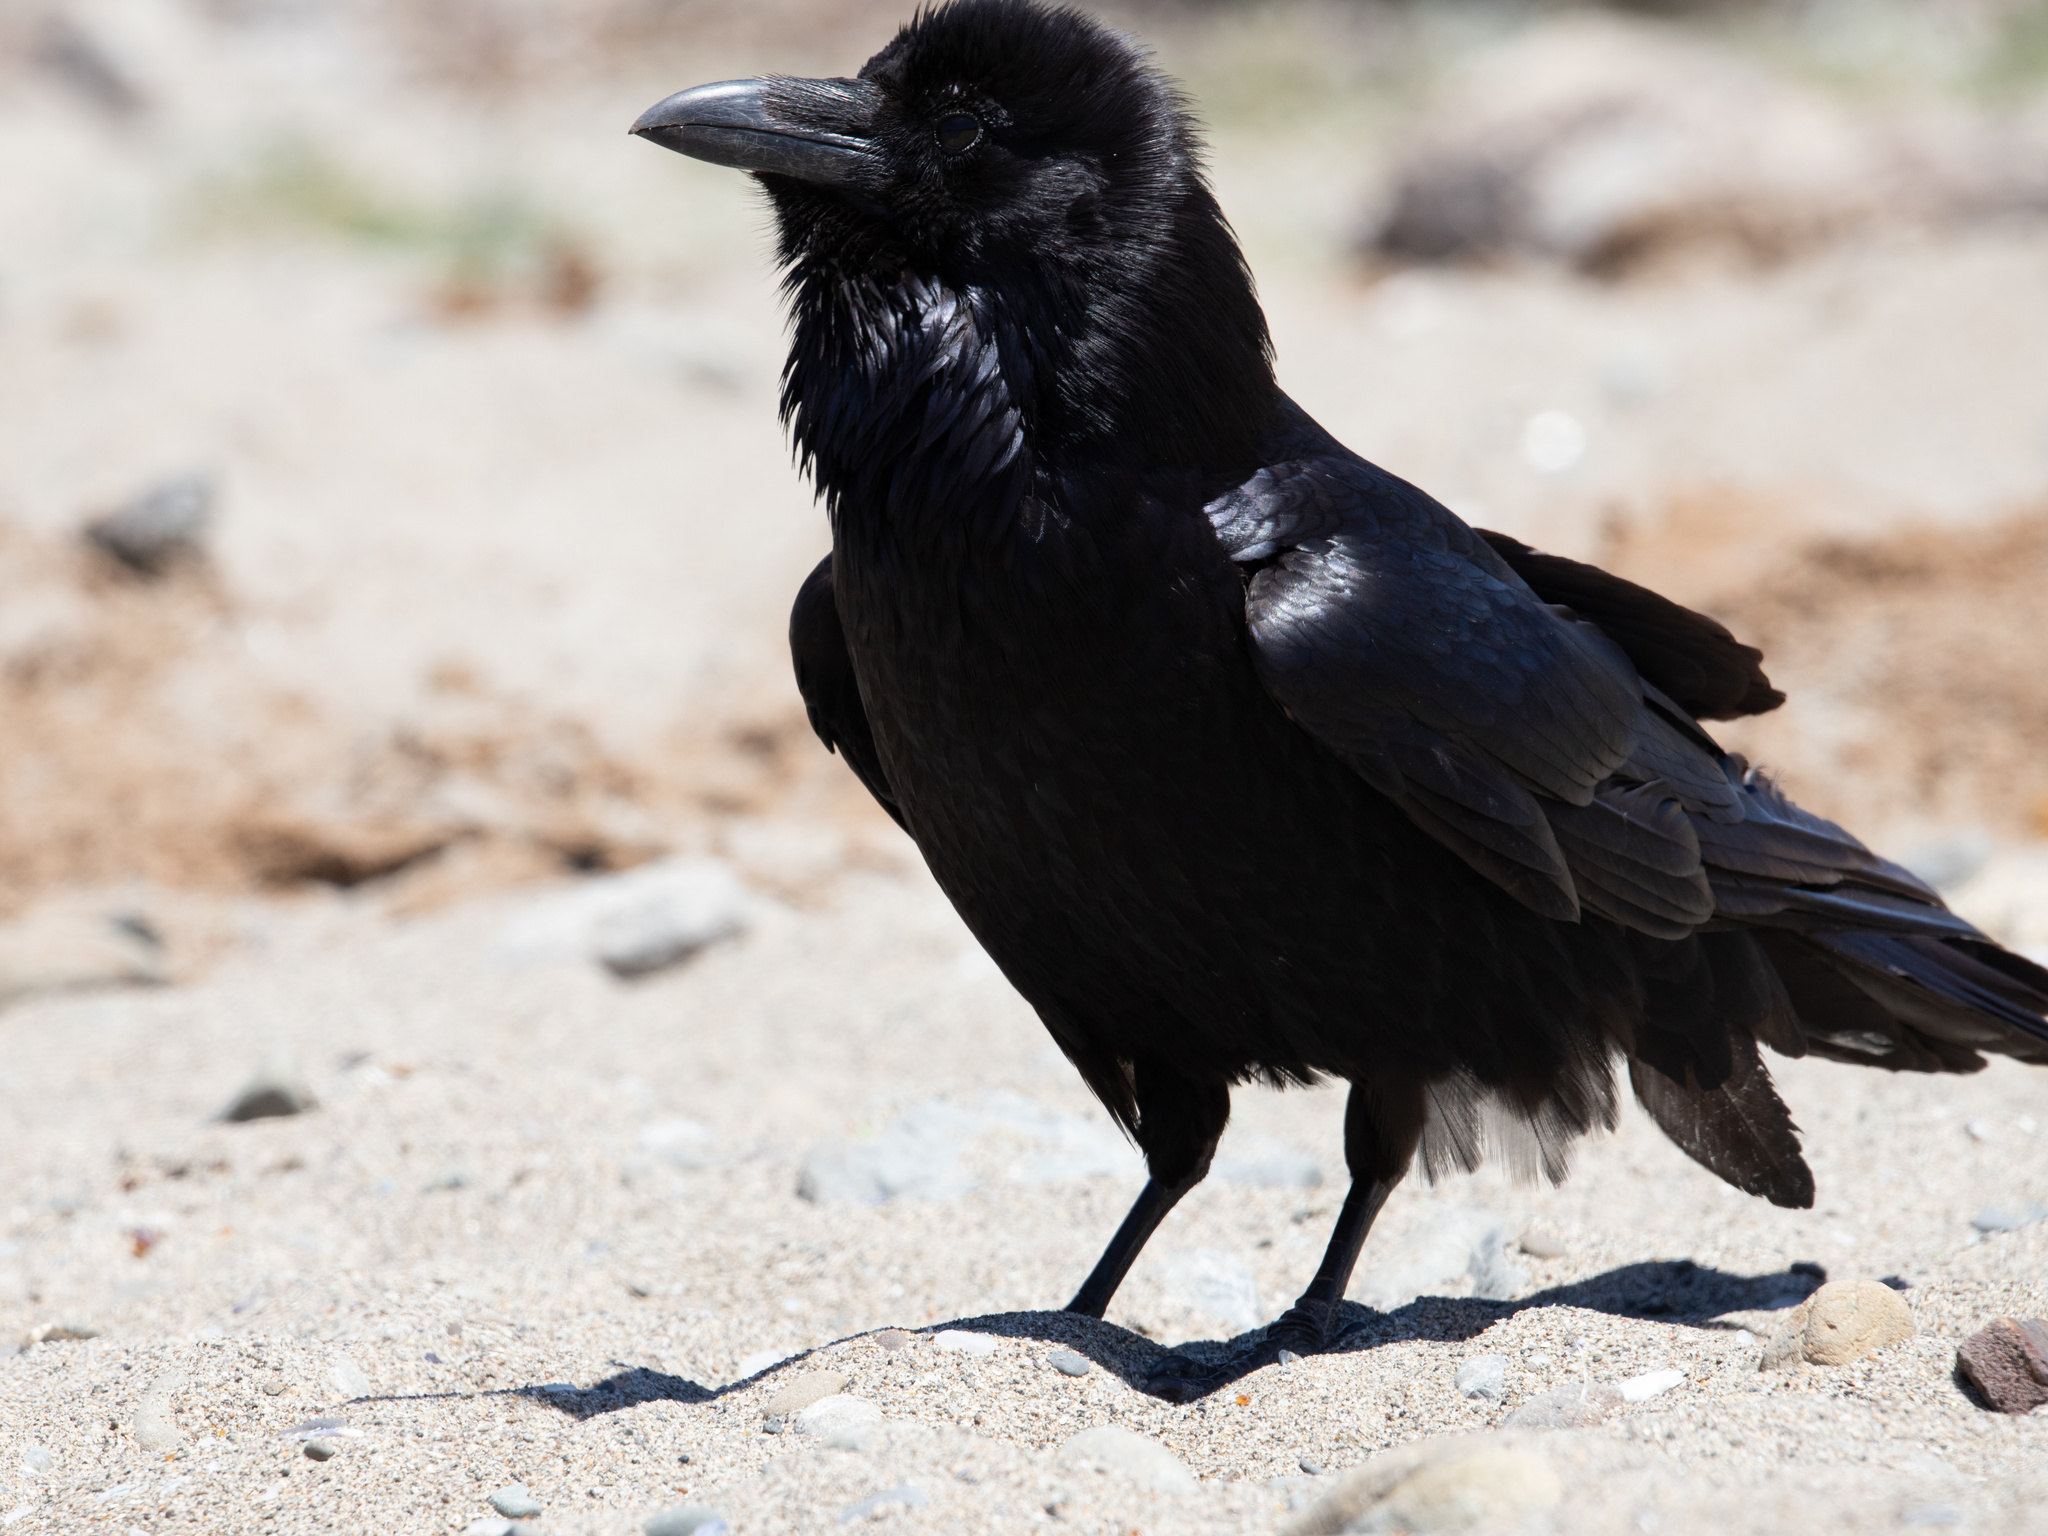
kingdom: Animalia
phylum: Chordata
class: Aves
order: Passeriformes
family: Corvidae
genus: Corvus
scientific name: Corvus corax
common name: Common raven
